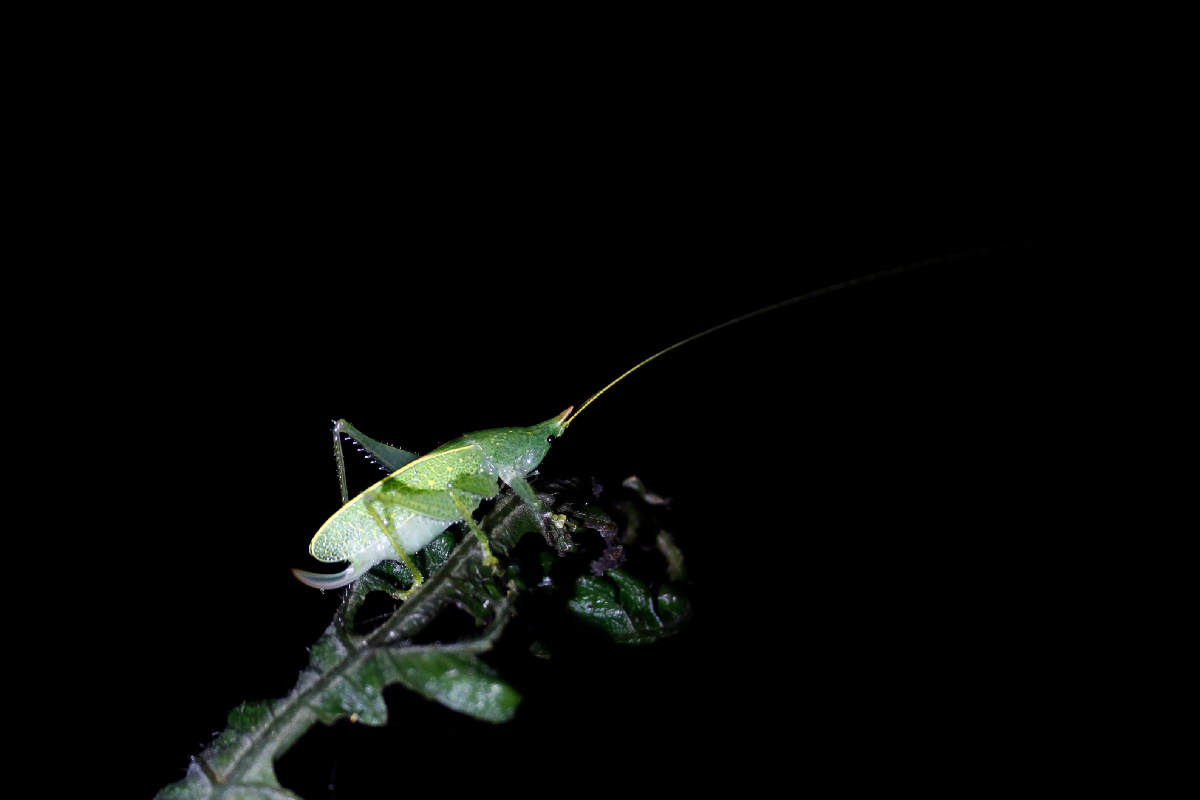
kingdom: Animalia
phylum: Arthropoda
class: Insecta
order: Orthoptera
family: Tettigoniidae
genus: Copiphora
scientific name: Copiphora rhinoceros
